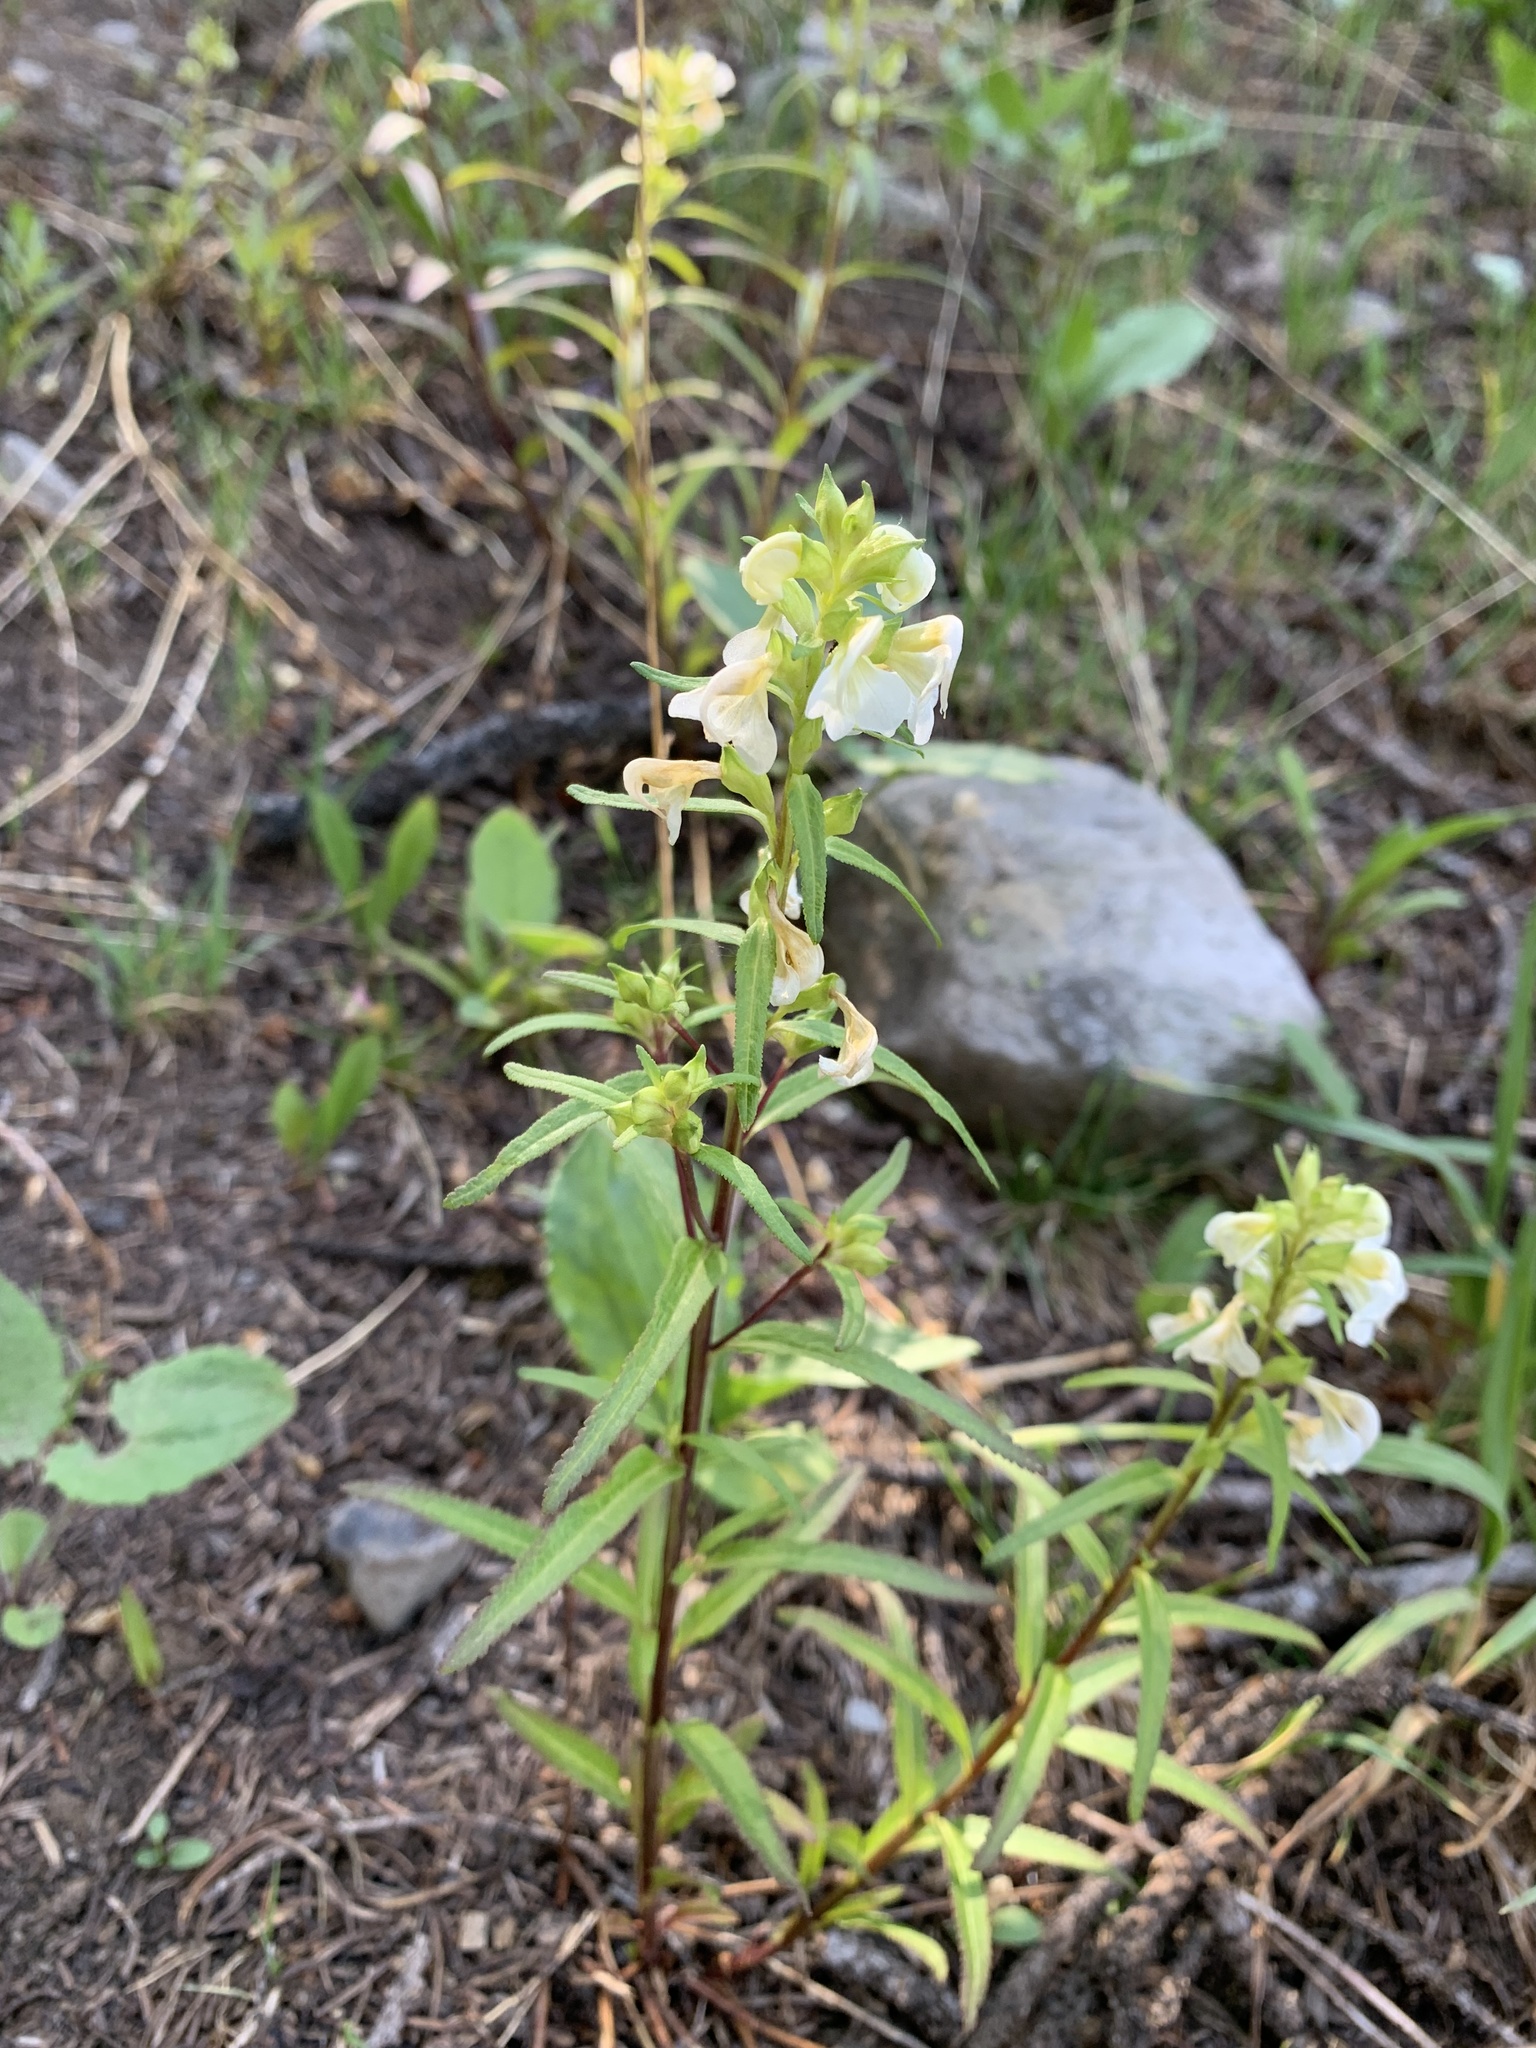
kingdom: Plantae
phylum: Tracheophyta
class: Magnoliopsida
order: Lamiales
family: Orobanchaceae
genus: Pedicularis
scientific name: Pedicularis racemosa
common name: Leafy lousewort
